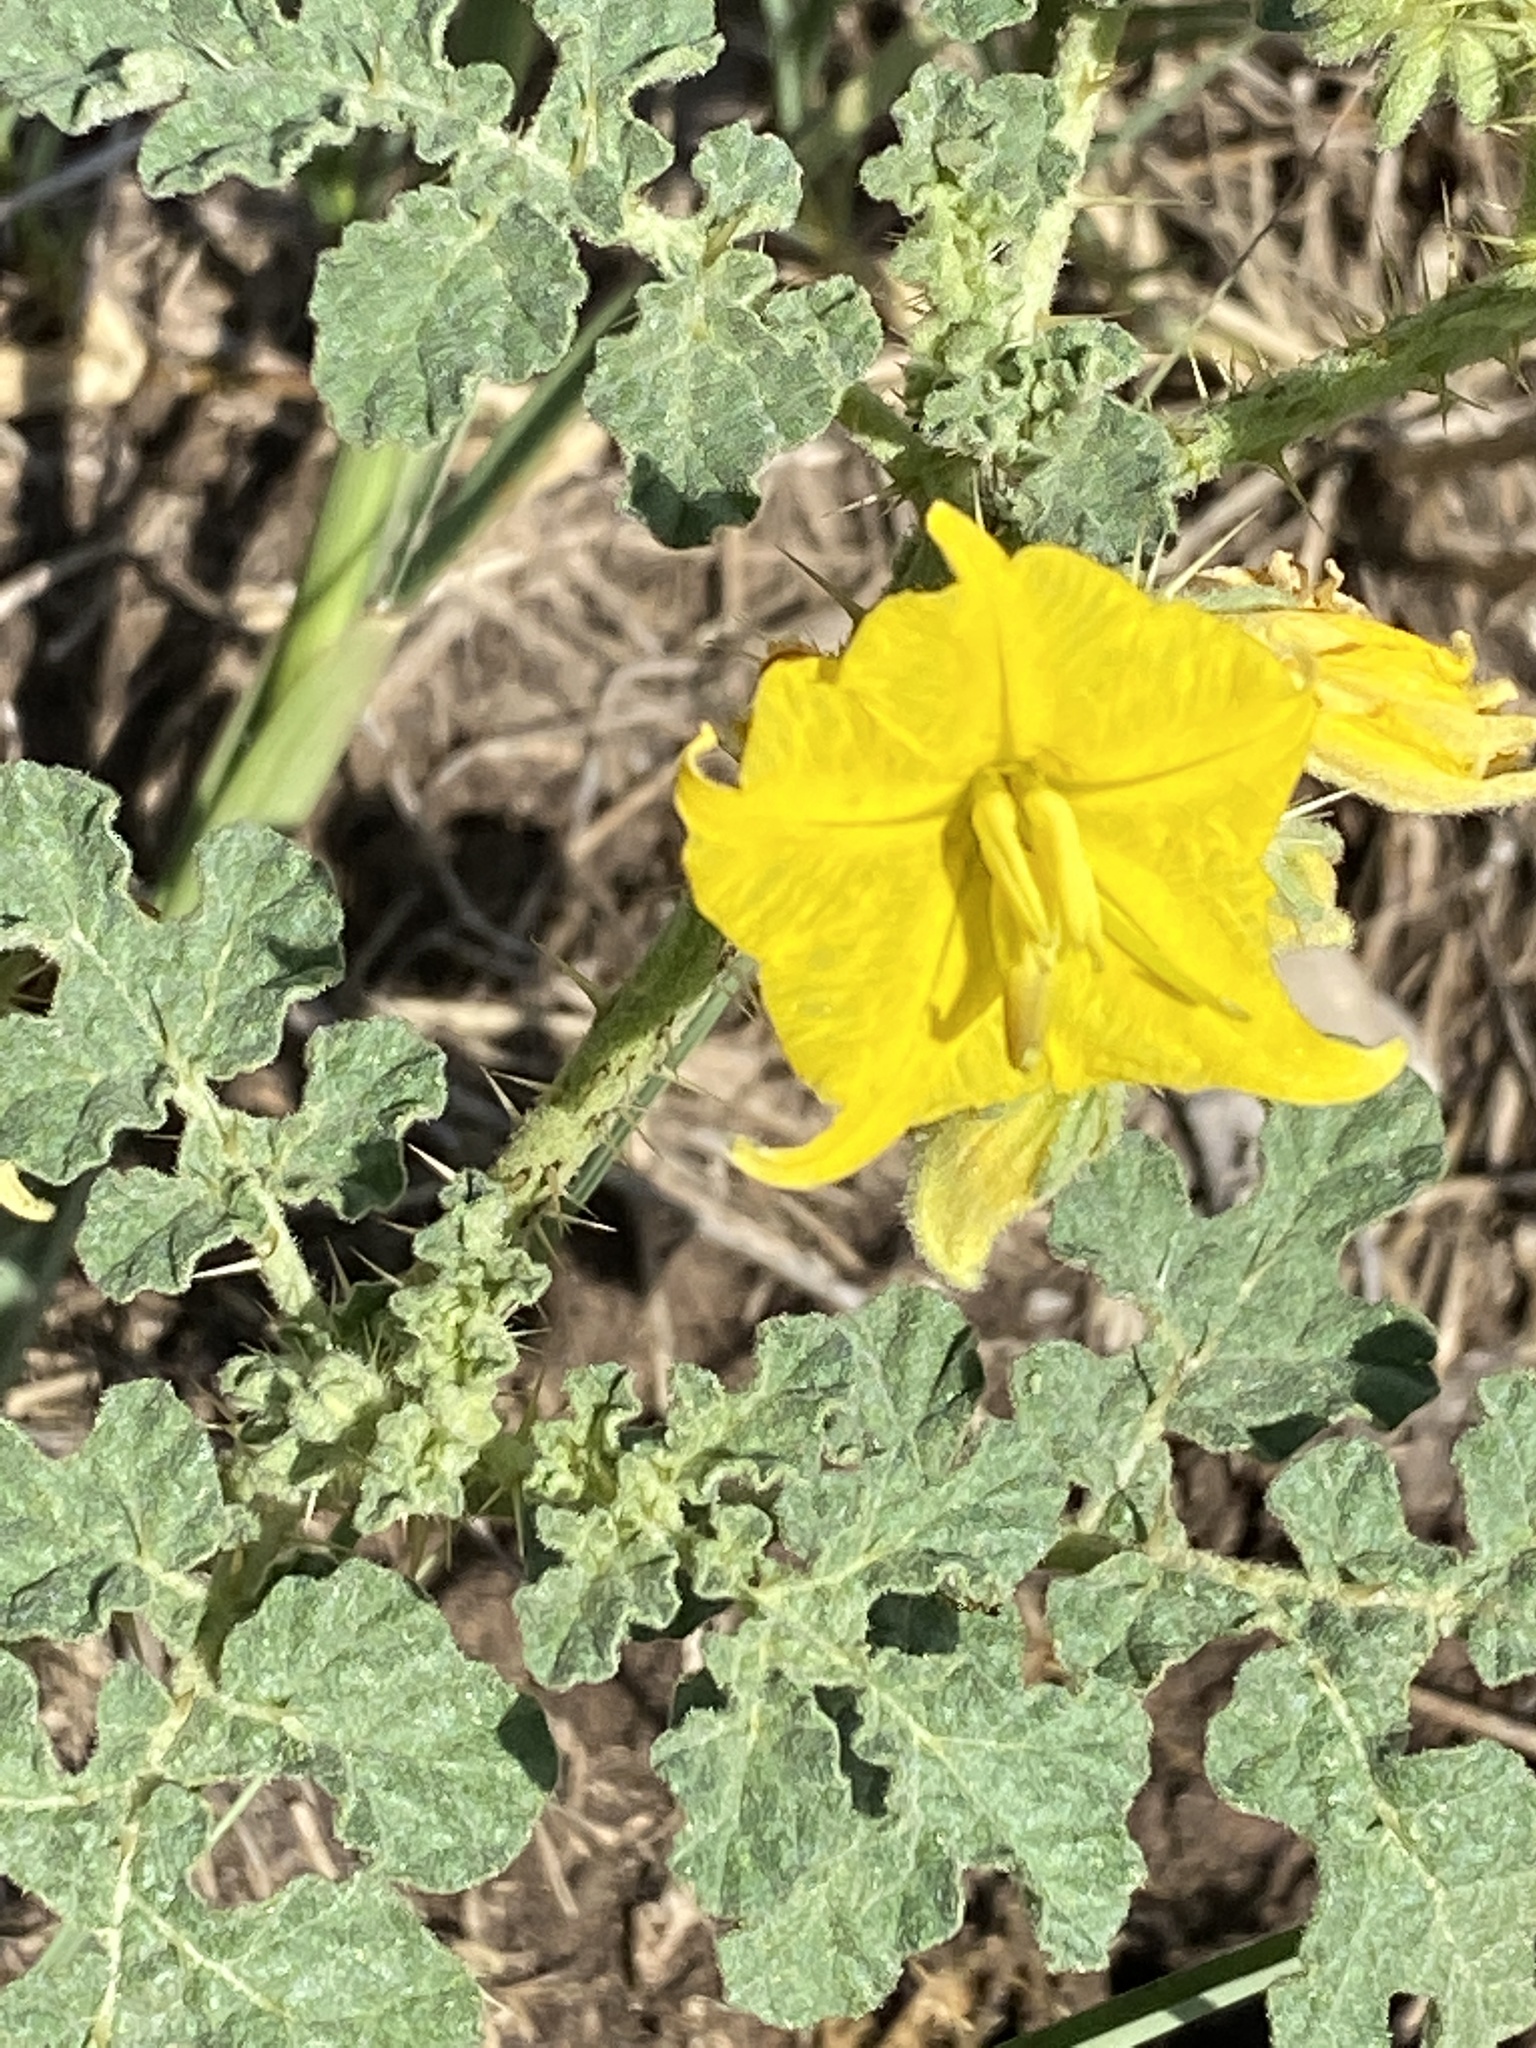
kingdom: Plantae
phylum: Tracheophyta
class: Magnoliopsida
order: Solanales
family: Solanaceae
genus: Solanum
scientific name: Solanum angustifolium
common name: Buffalobur nightshade
